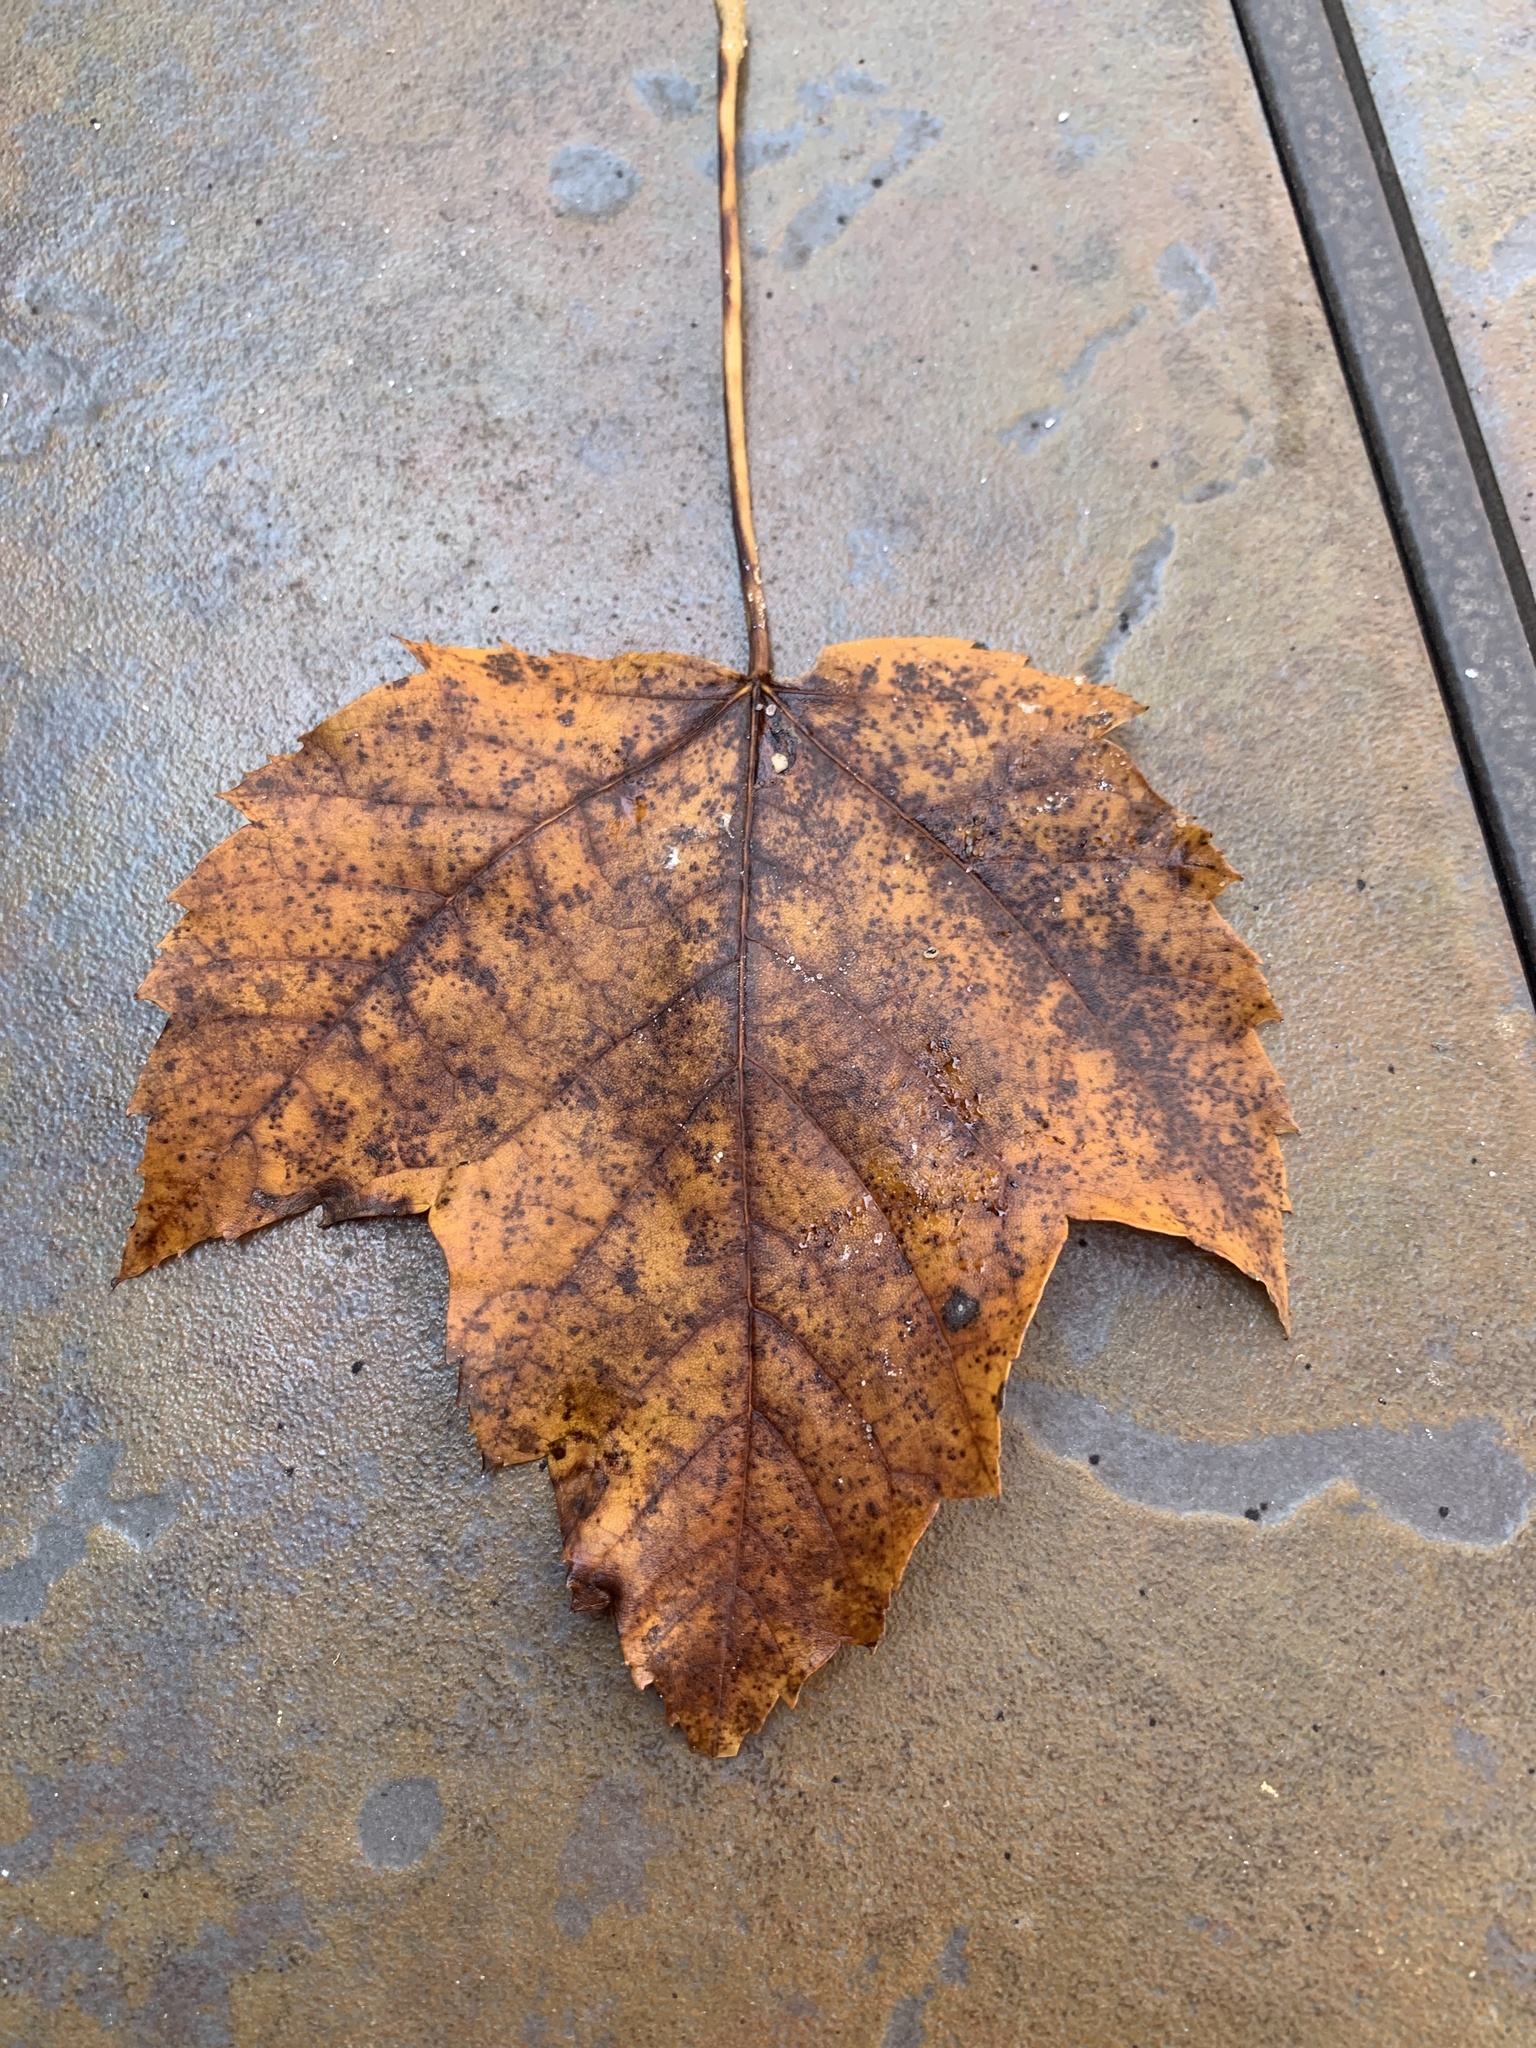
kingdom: Plantae
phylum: Tracheophyta
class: Magnoliopsida
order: Sapindales
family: Sapindaceae
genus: Acer
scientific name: Acer rubrum
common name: Red maple
